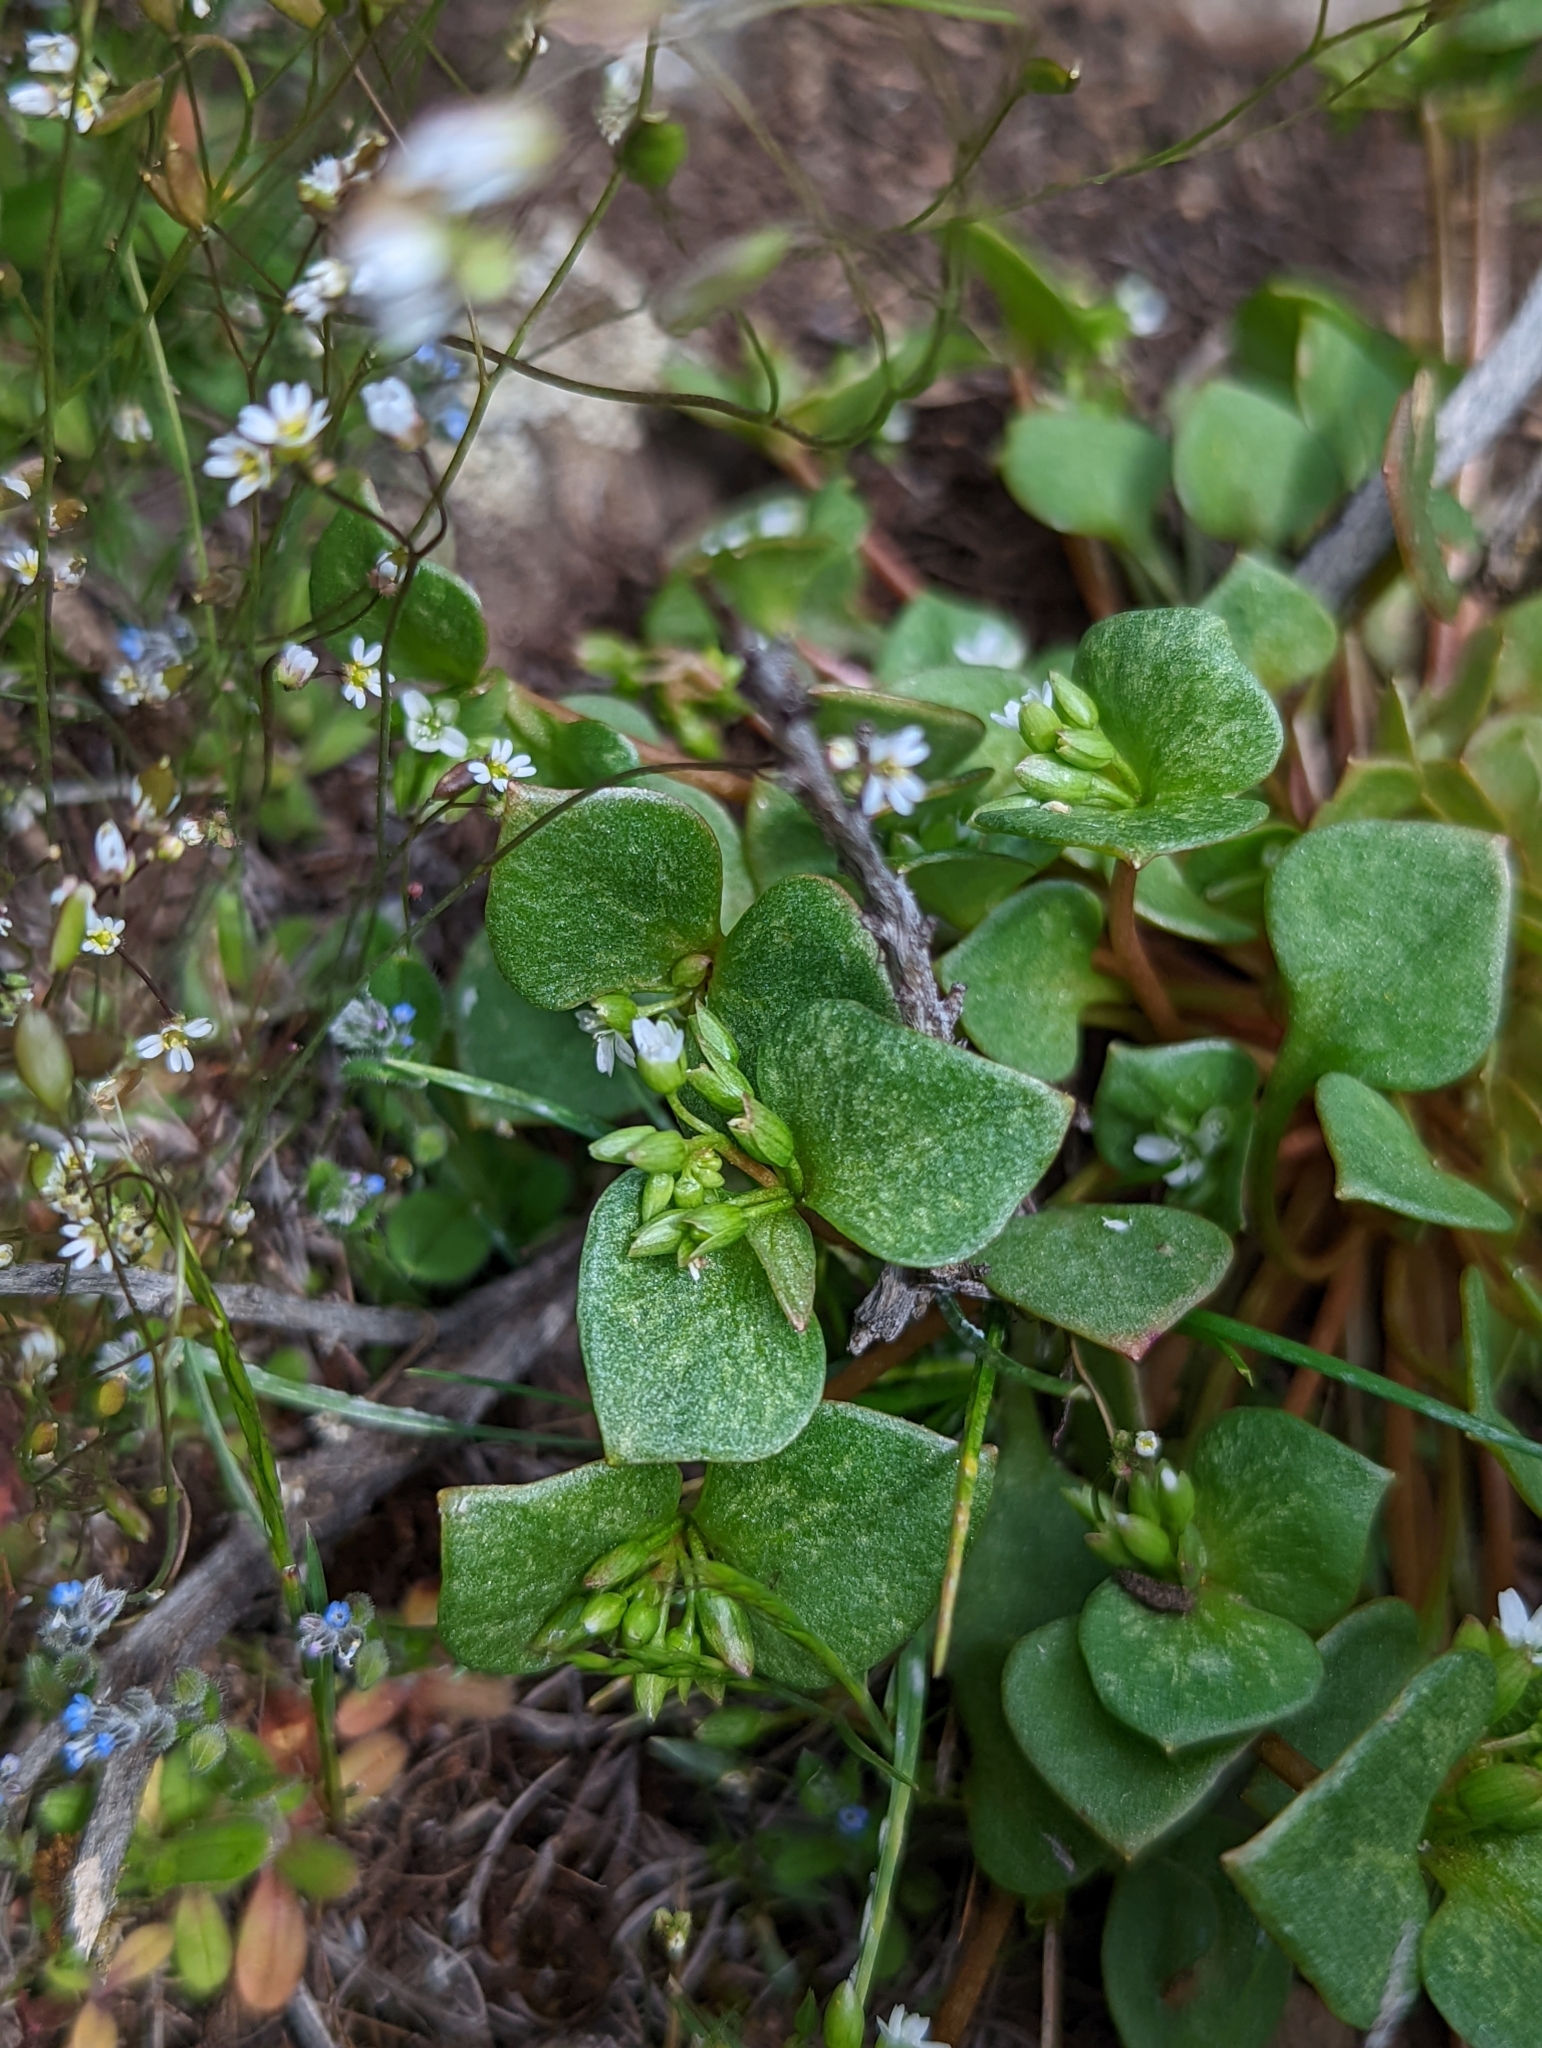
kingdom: Plantae
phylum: Tracheophyta
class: Magnoliopsida
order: Caryophyllales
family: Montiaceae
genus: Claytonia
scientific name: Claytonia rubra
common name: Erubescent miner's-lettuce
